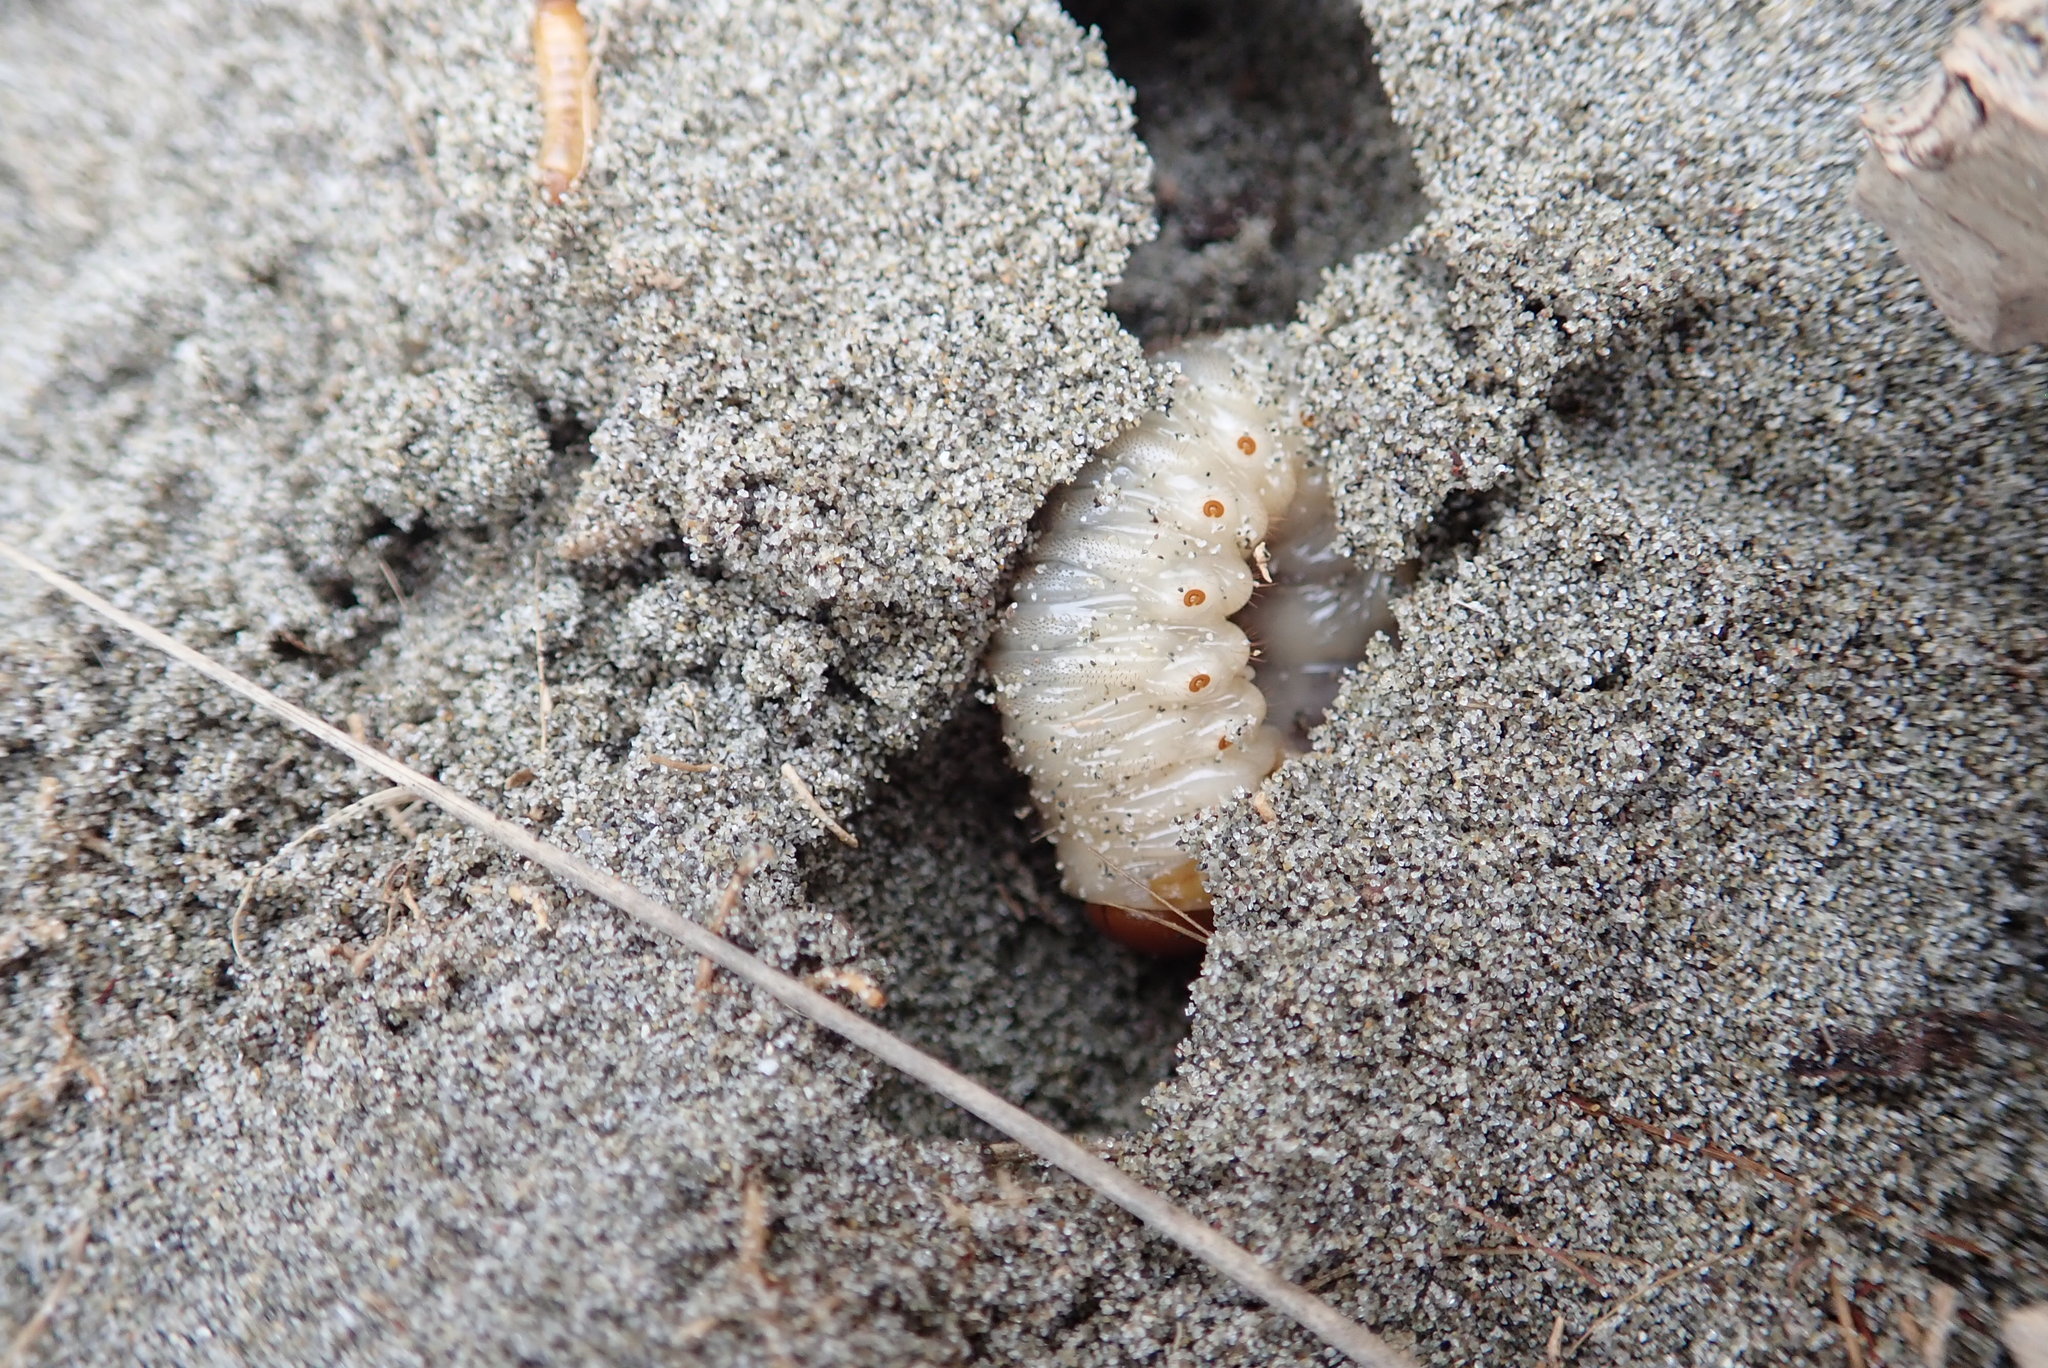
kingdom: Animalia
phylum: Arthropoda
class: Insecta
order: Coleoptera
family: Scarabaeidae
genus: Pericoptus
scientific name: Pericoptus truncatus
